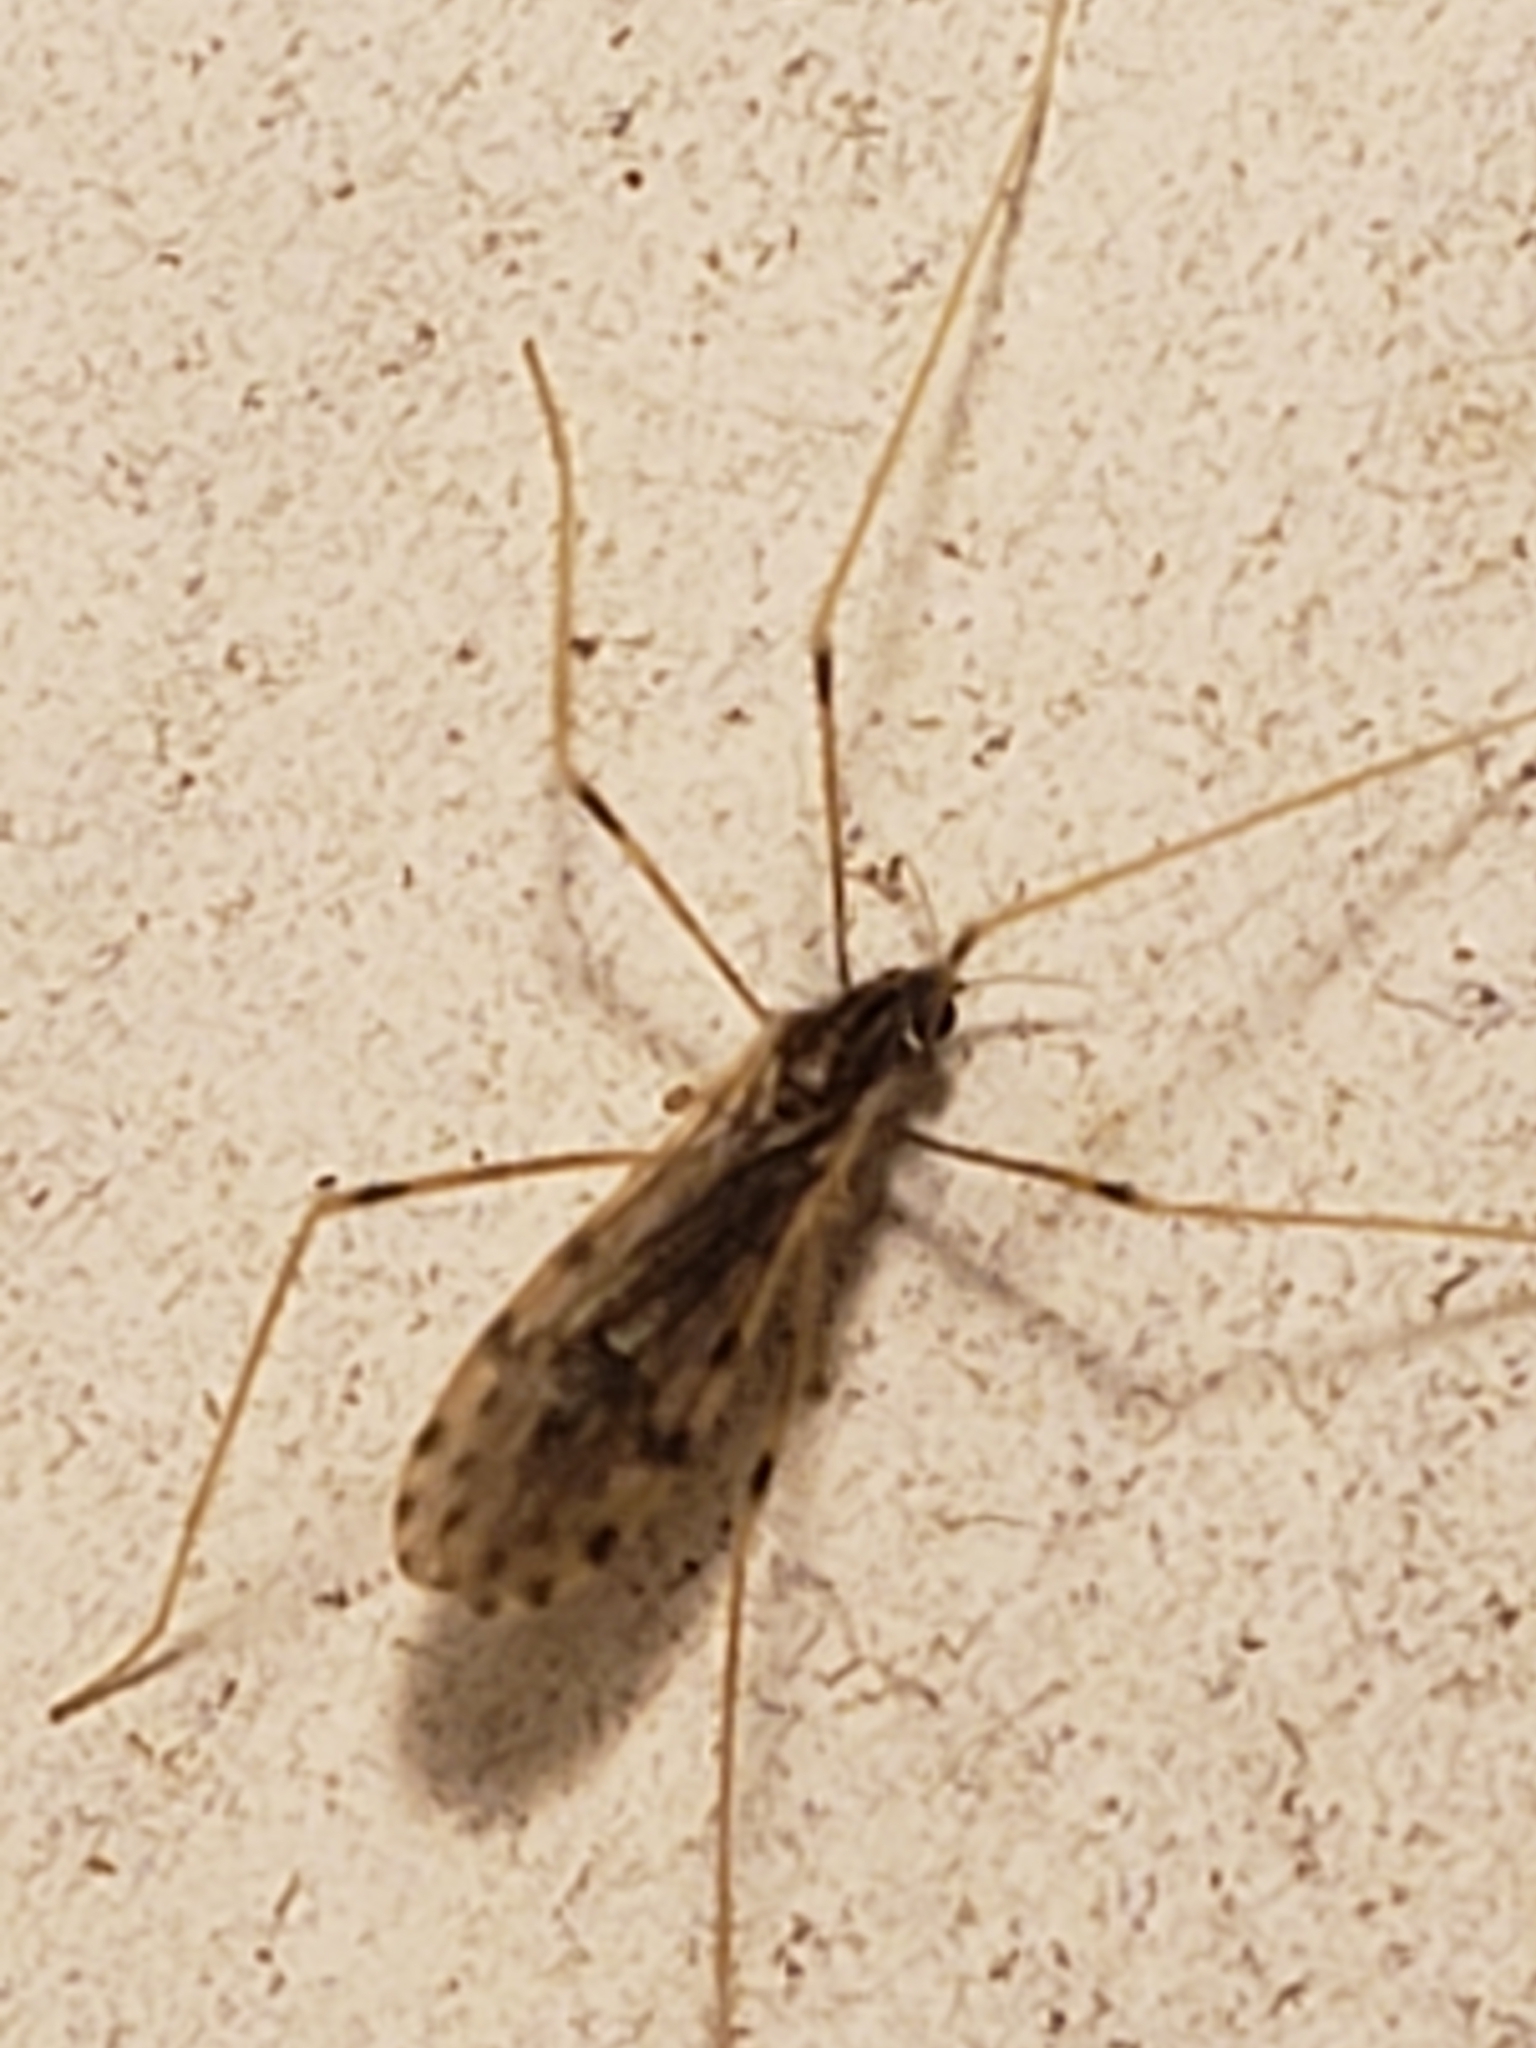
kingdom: Animalia
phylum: Arthropoda
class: Insecta
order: Diptera
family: Limoniidae
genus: Erioptera
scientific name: Erioptera parva
